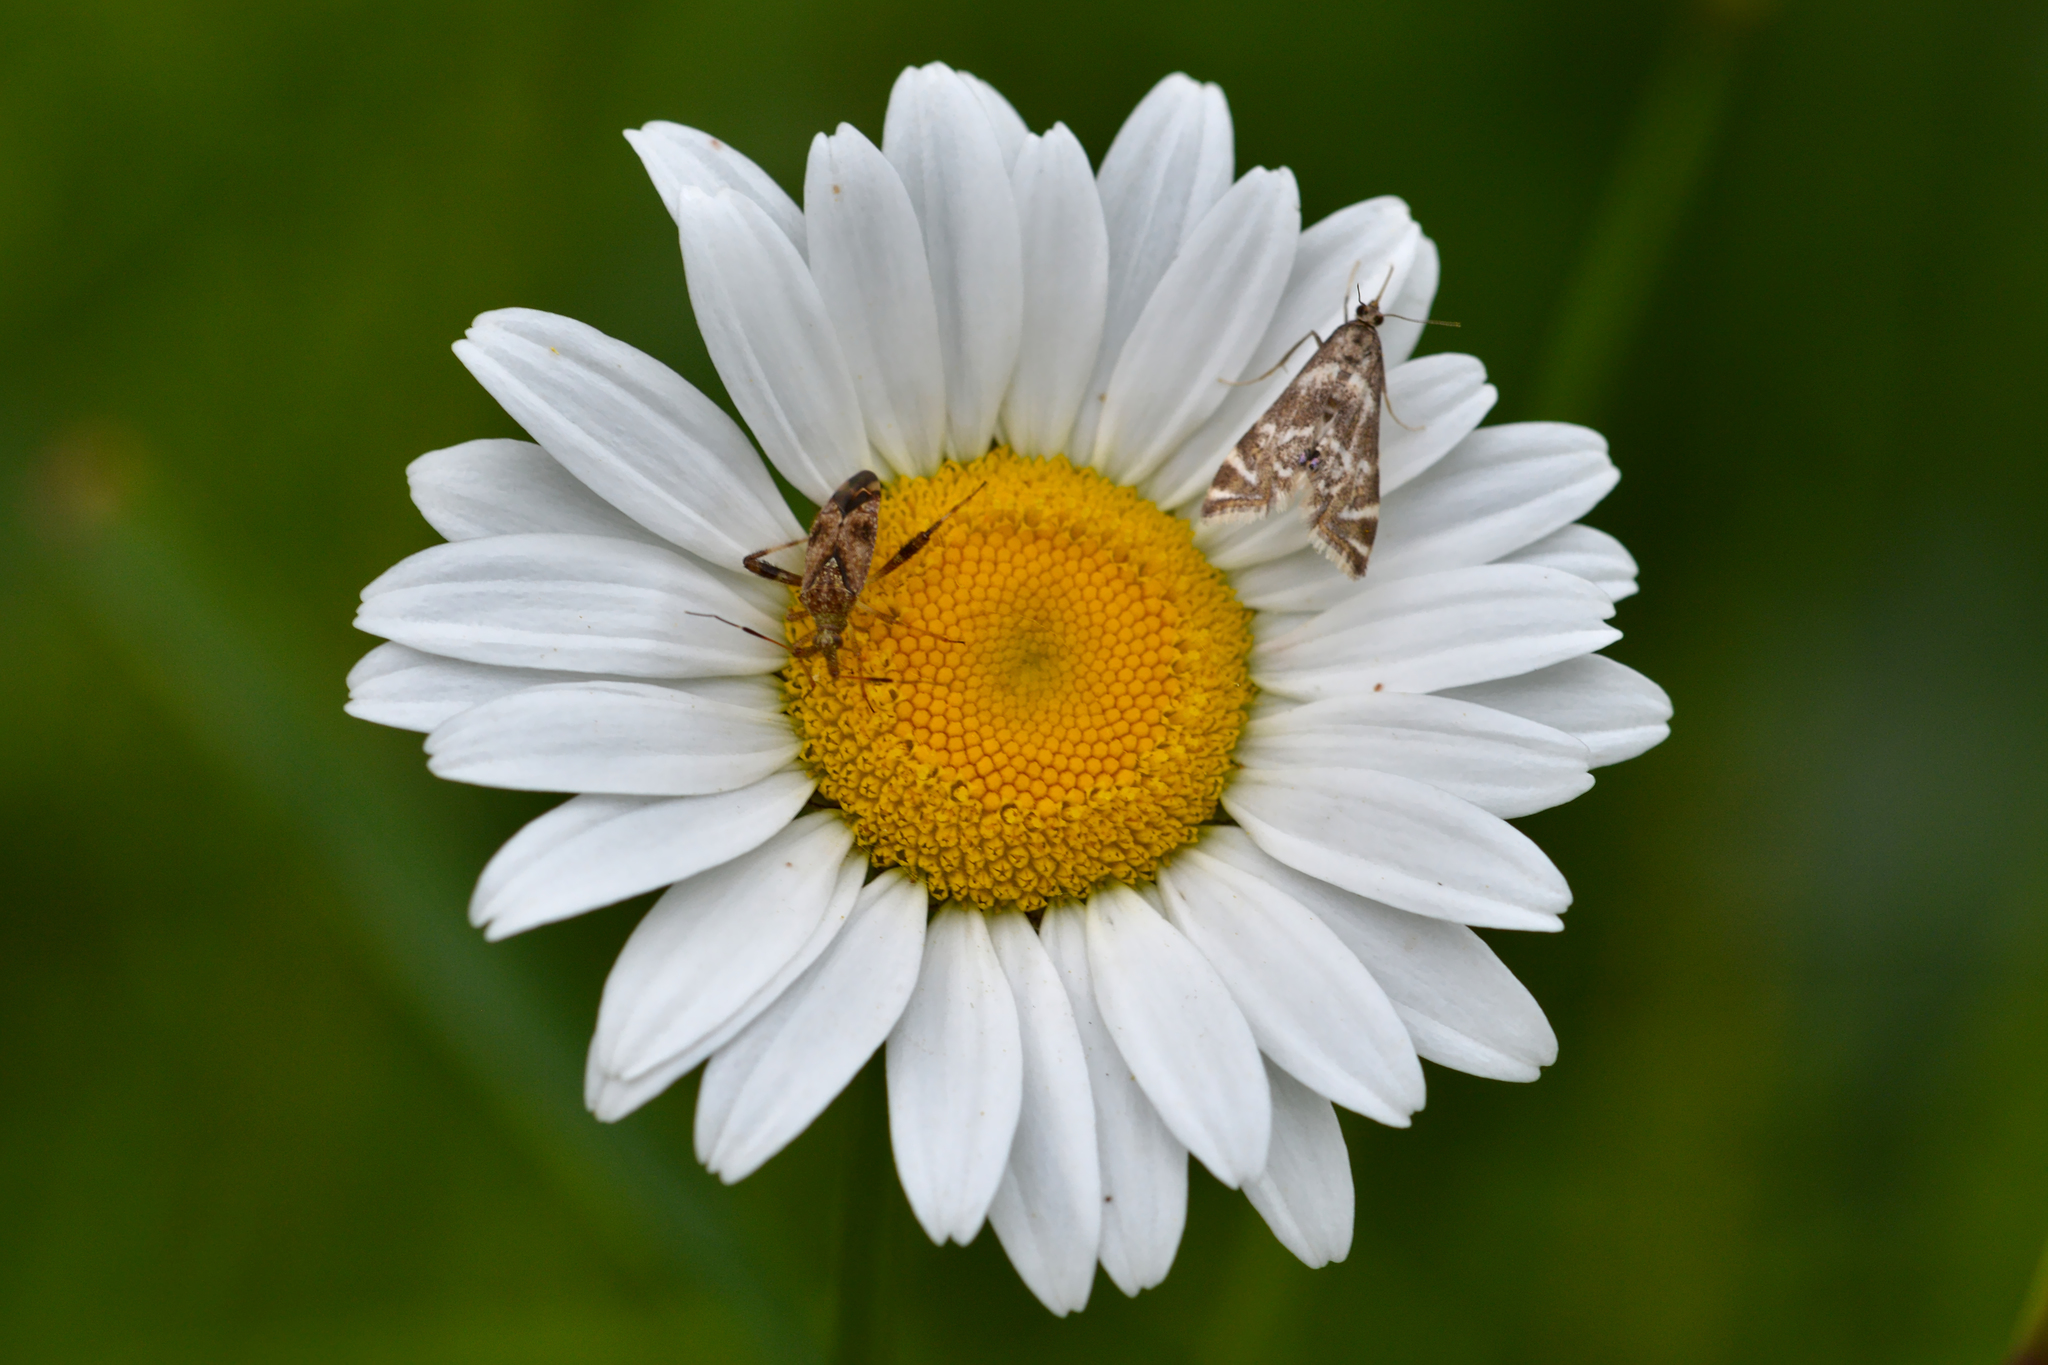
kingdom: Plantae
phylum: Tracheophyta
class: Magnoliopsida
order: Asterales
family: Asteraceae
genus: Leucanthemum
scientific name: Leucanthemum vulgare
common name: Oxeye daisy
